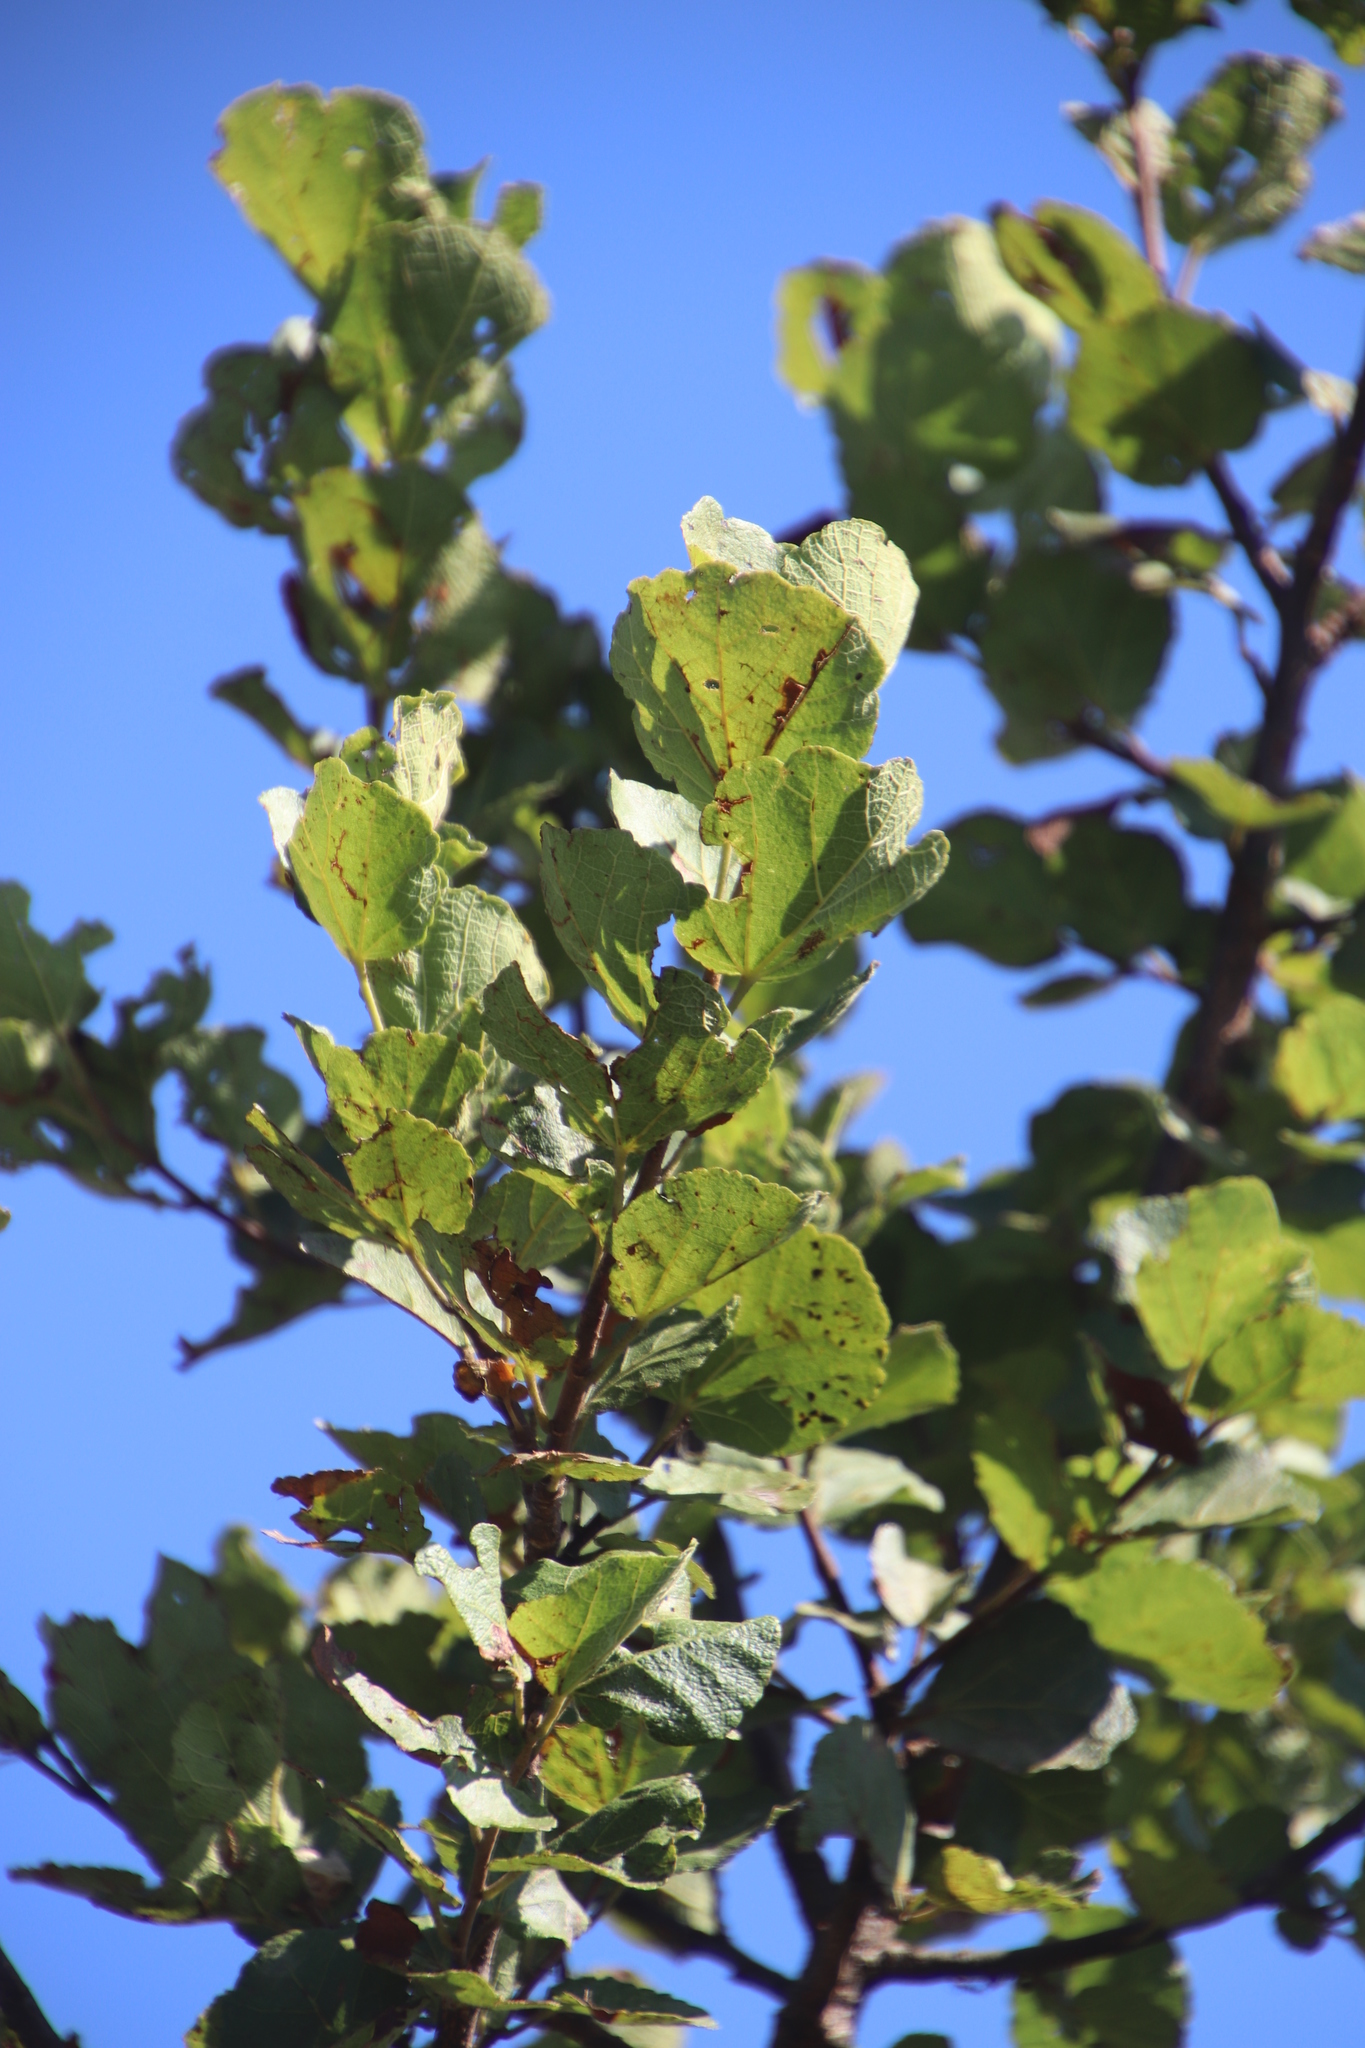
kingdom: Plantae
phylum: Tracheophyta
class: Magnoliopsida
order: Malvales
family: Malvaceae
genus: Dombeya
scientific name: Dombeya rotundifolia
